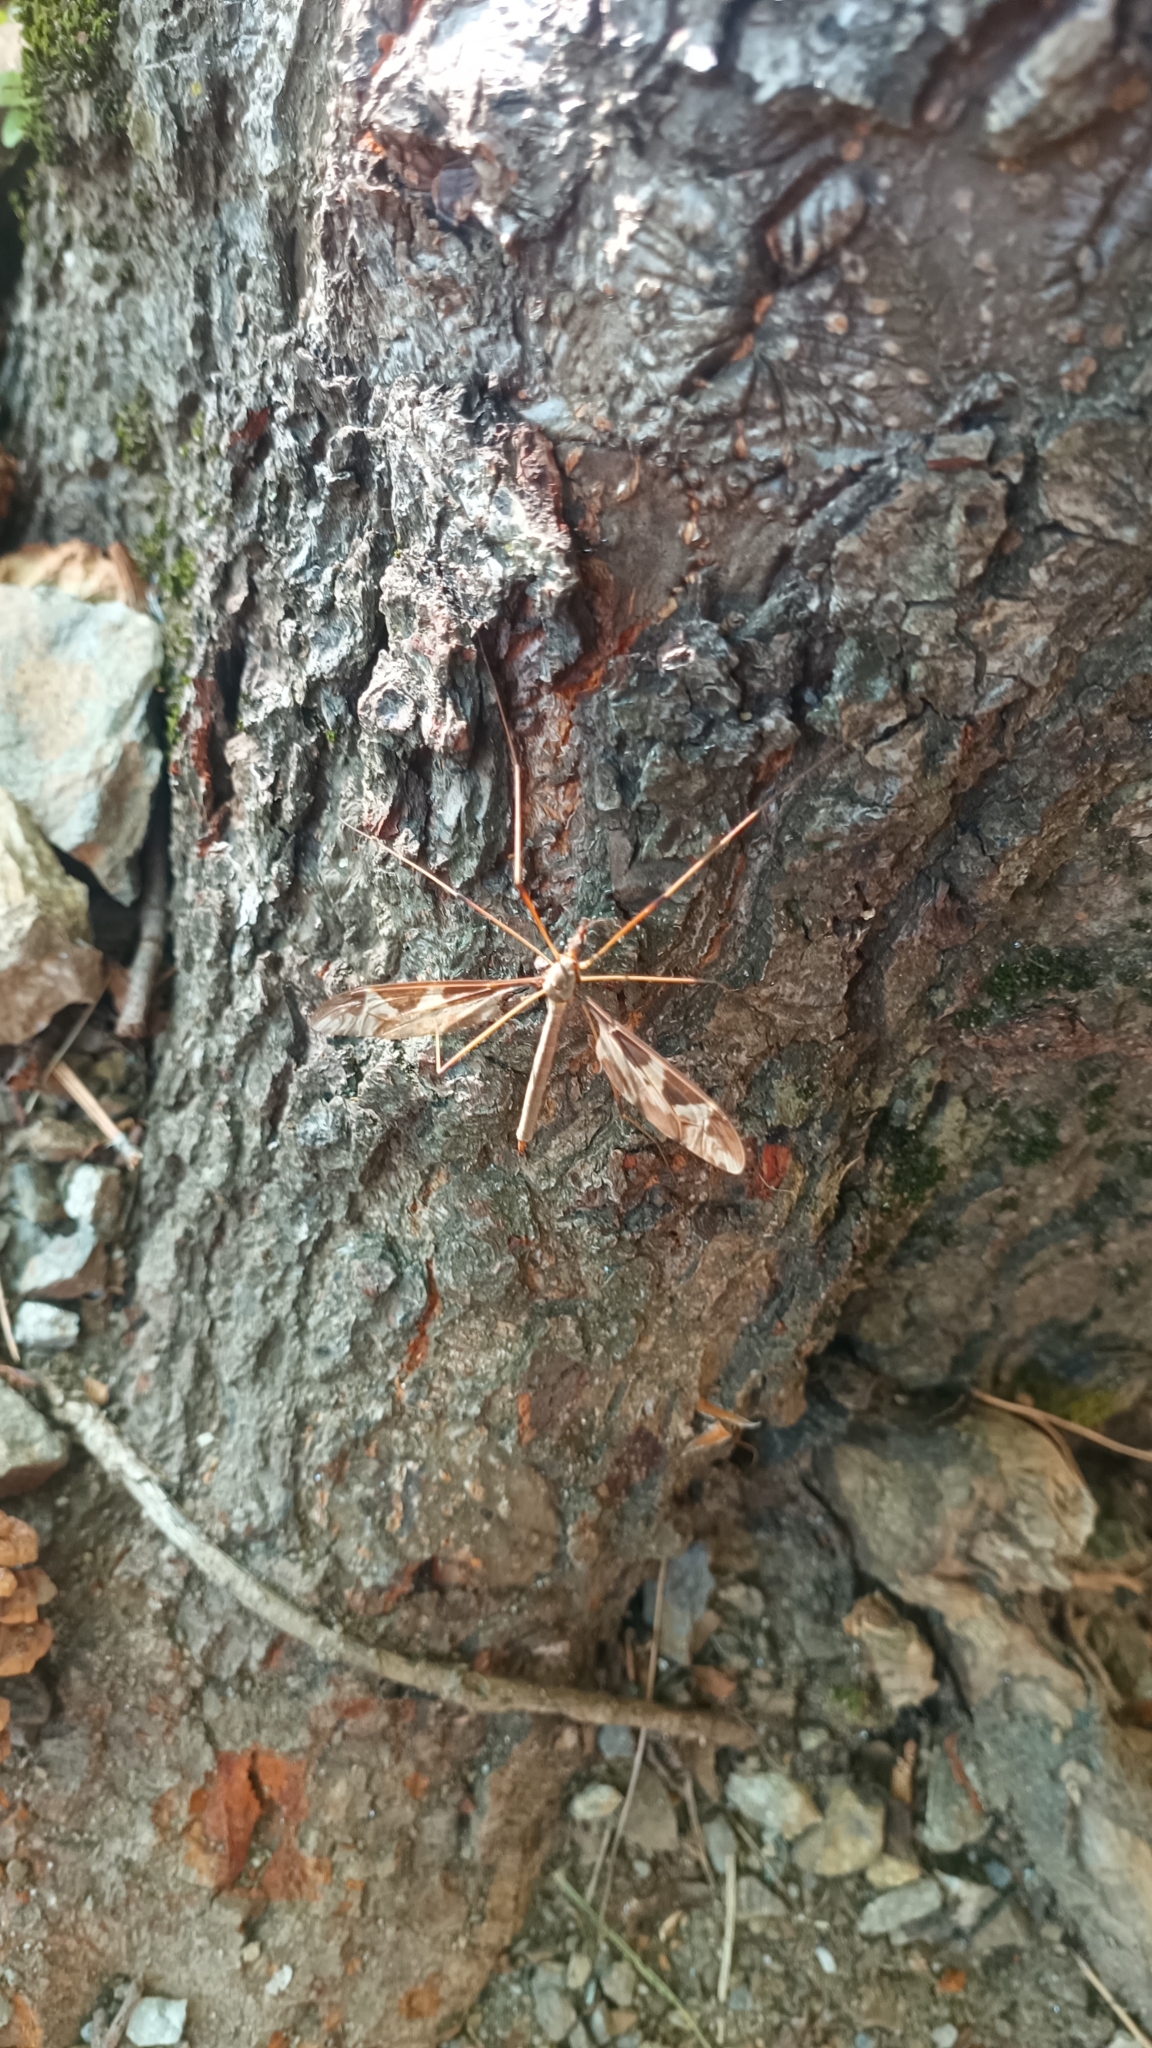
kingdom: Animalia
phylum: Arthropoda
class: Insecta
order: Diptera
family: Tipulidae
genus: Tipula
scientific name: Tipula maxima
